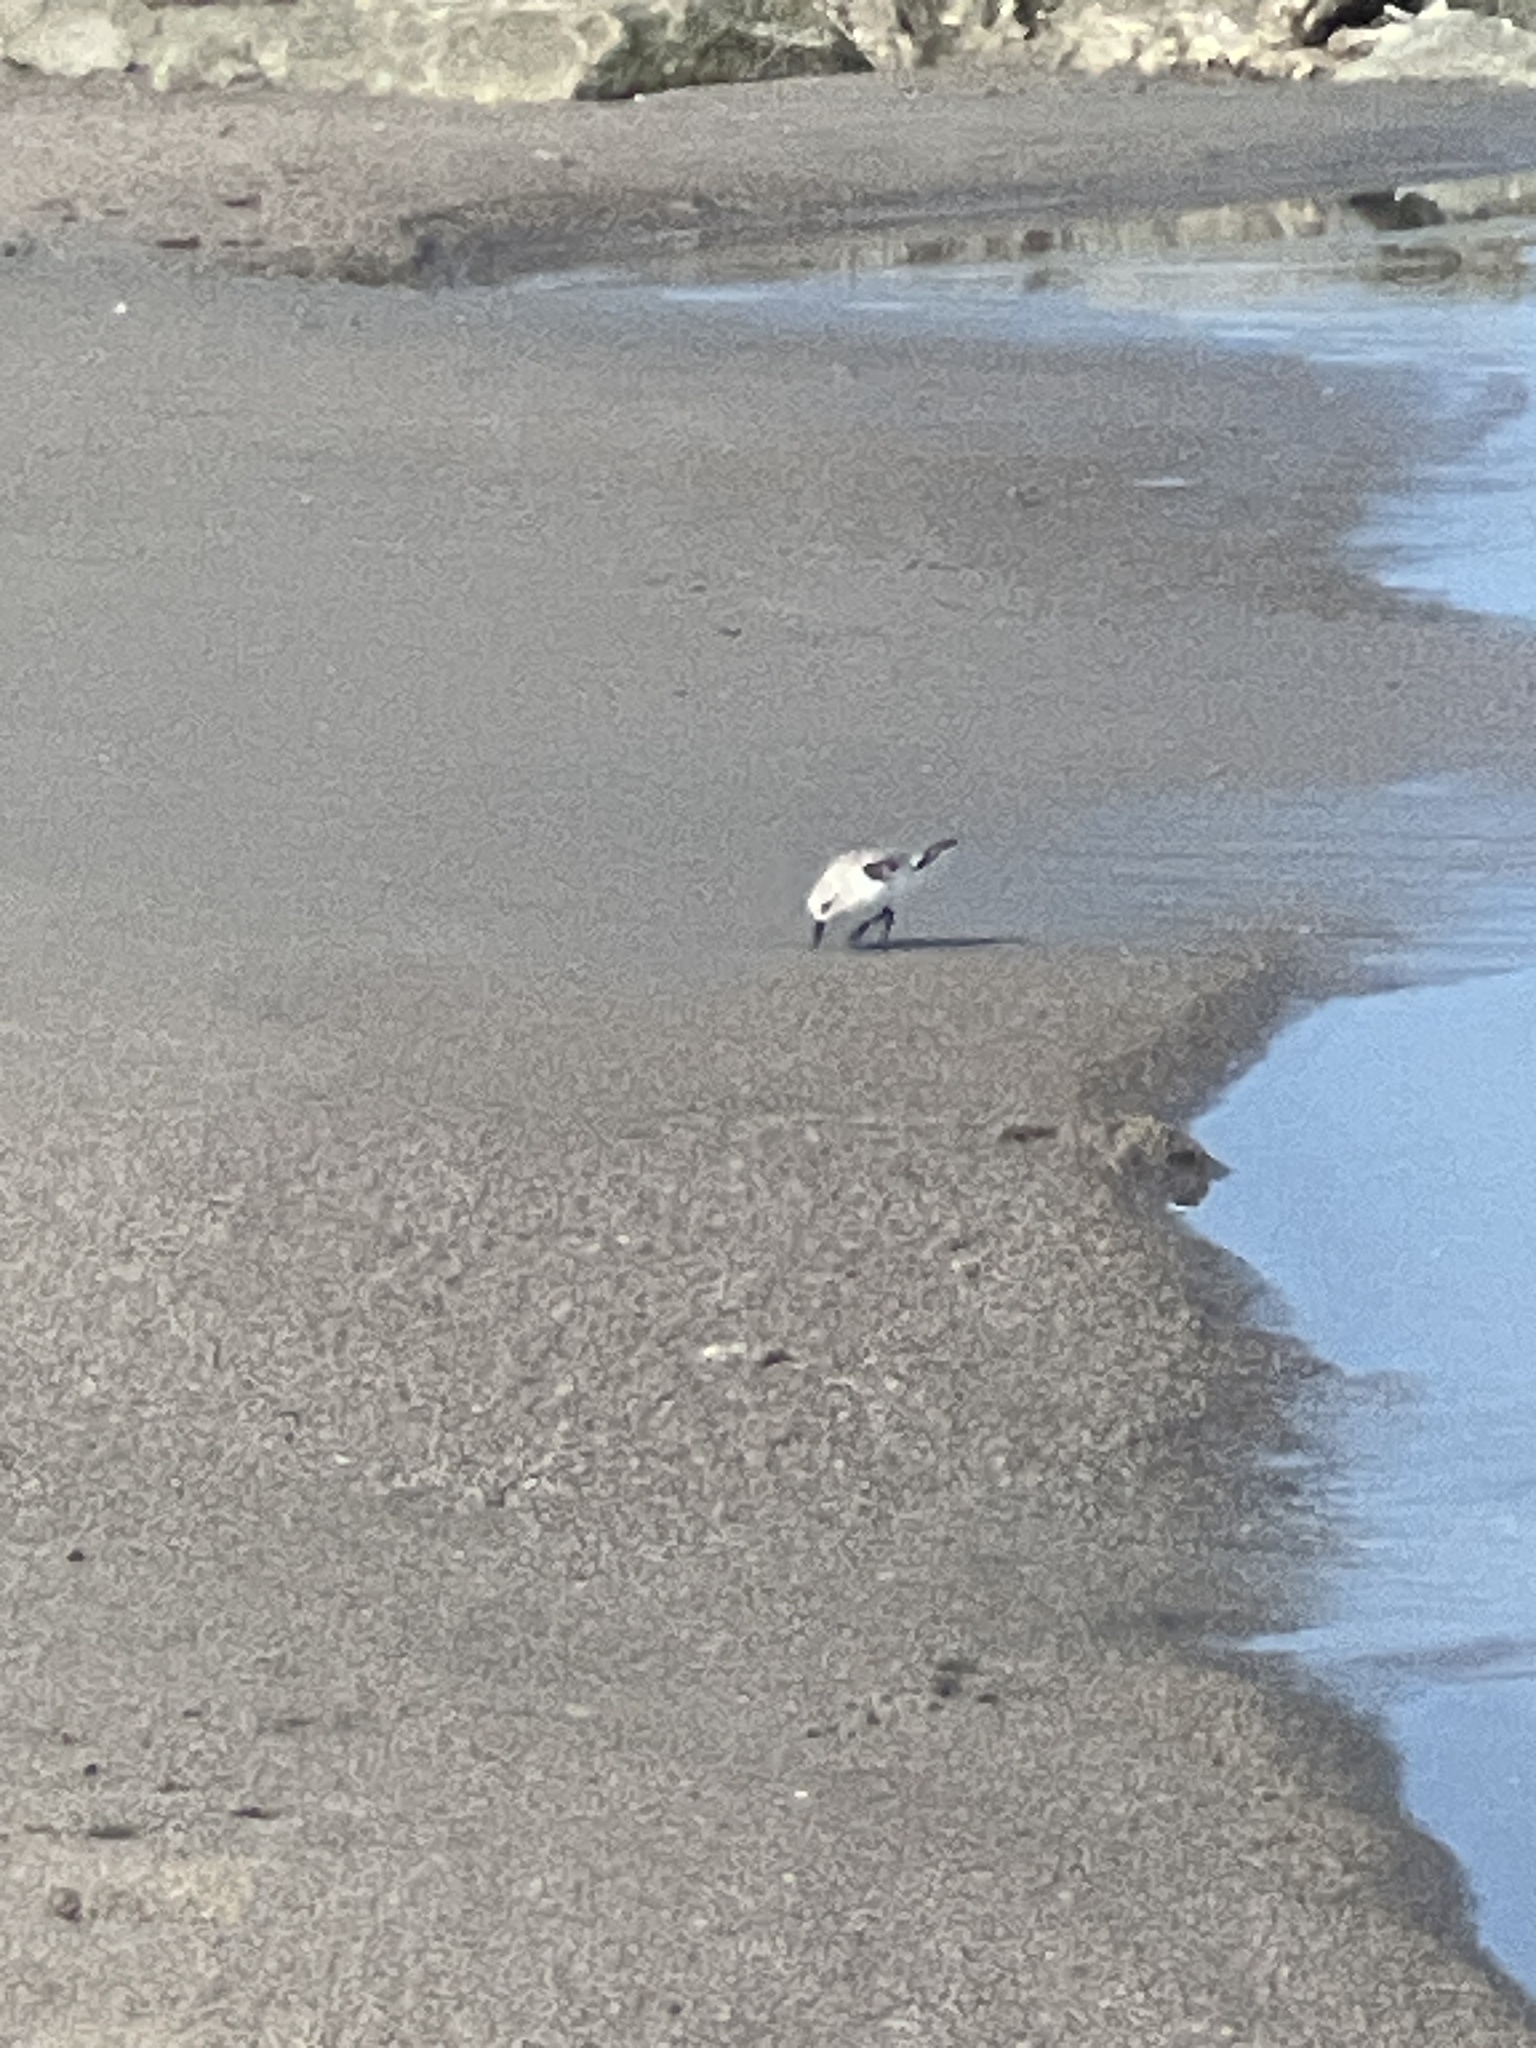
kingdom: Animalia
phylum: Chordata
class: Aves
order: Charadriiformes
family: Scolopacidae
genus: Calidris
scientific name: Calidris alba
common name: Sanderling
